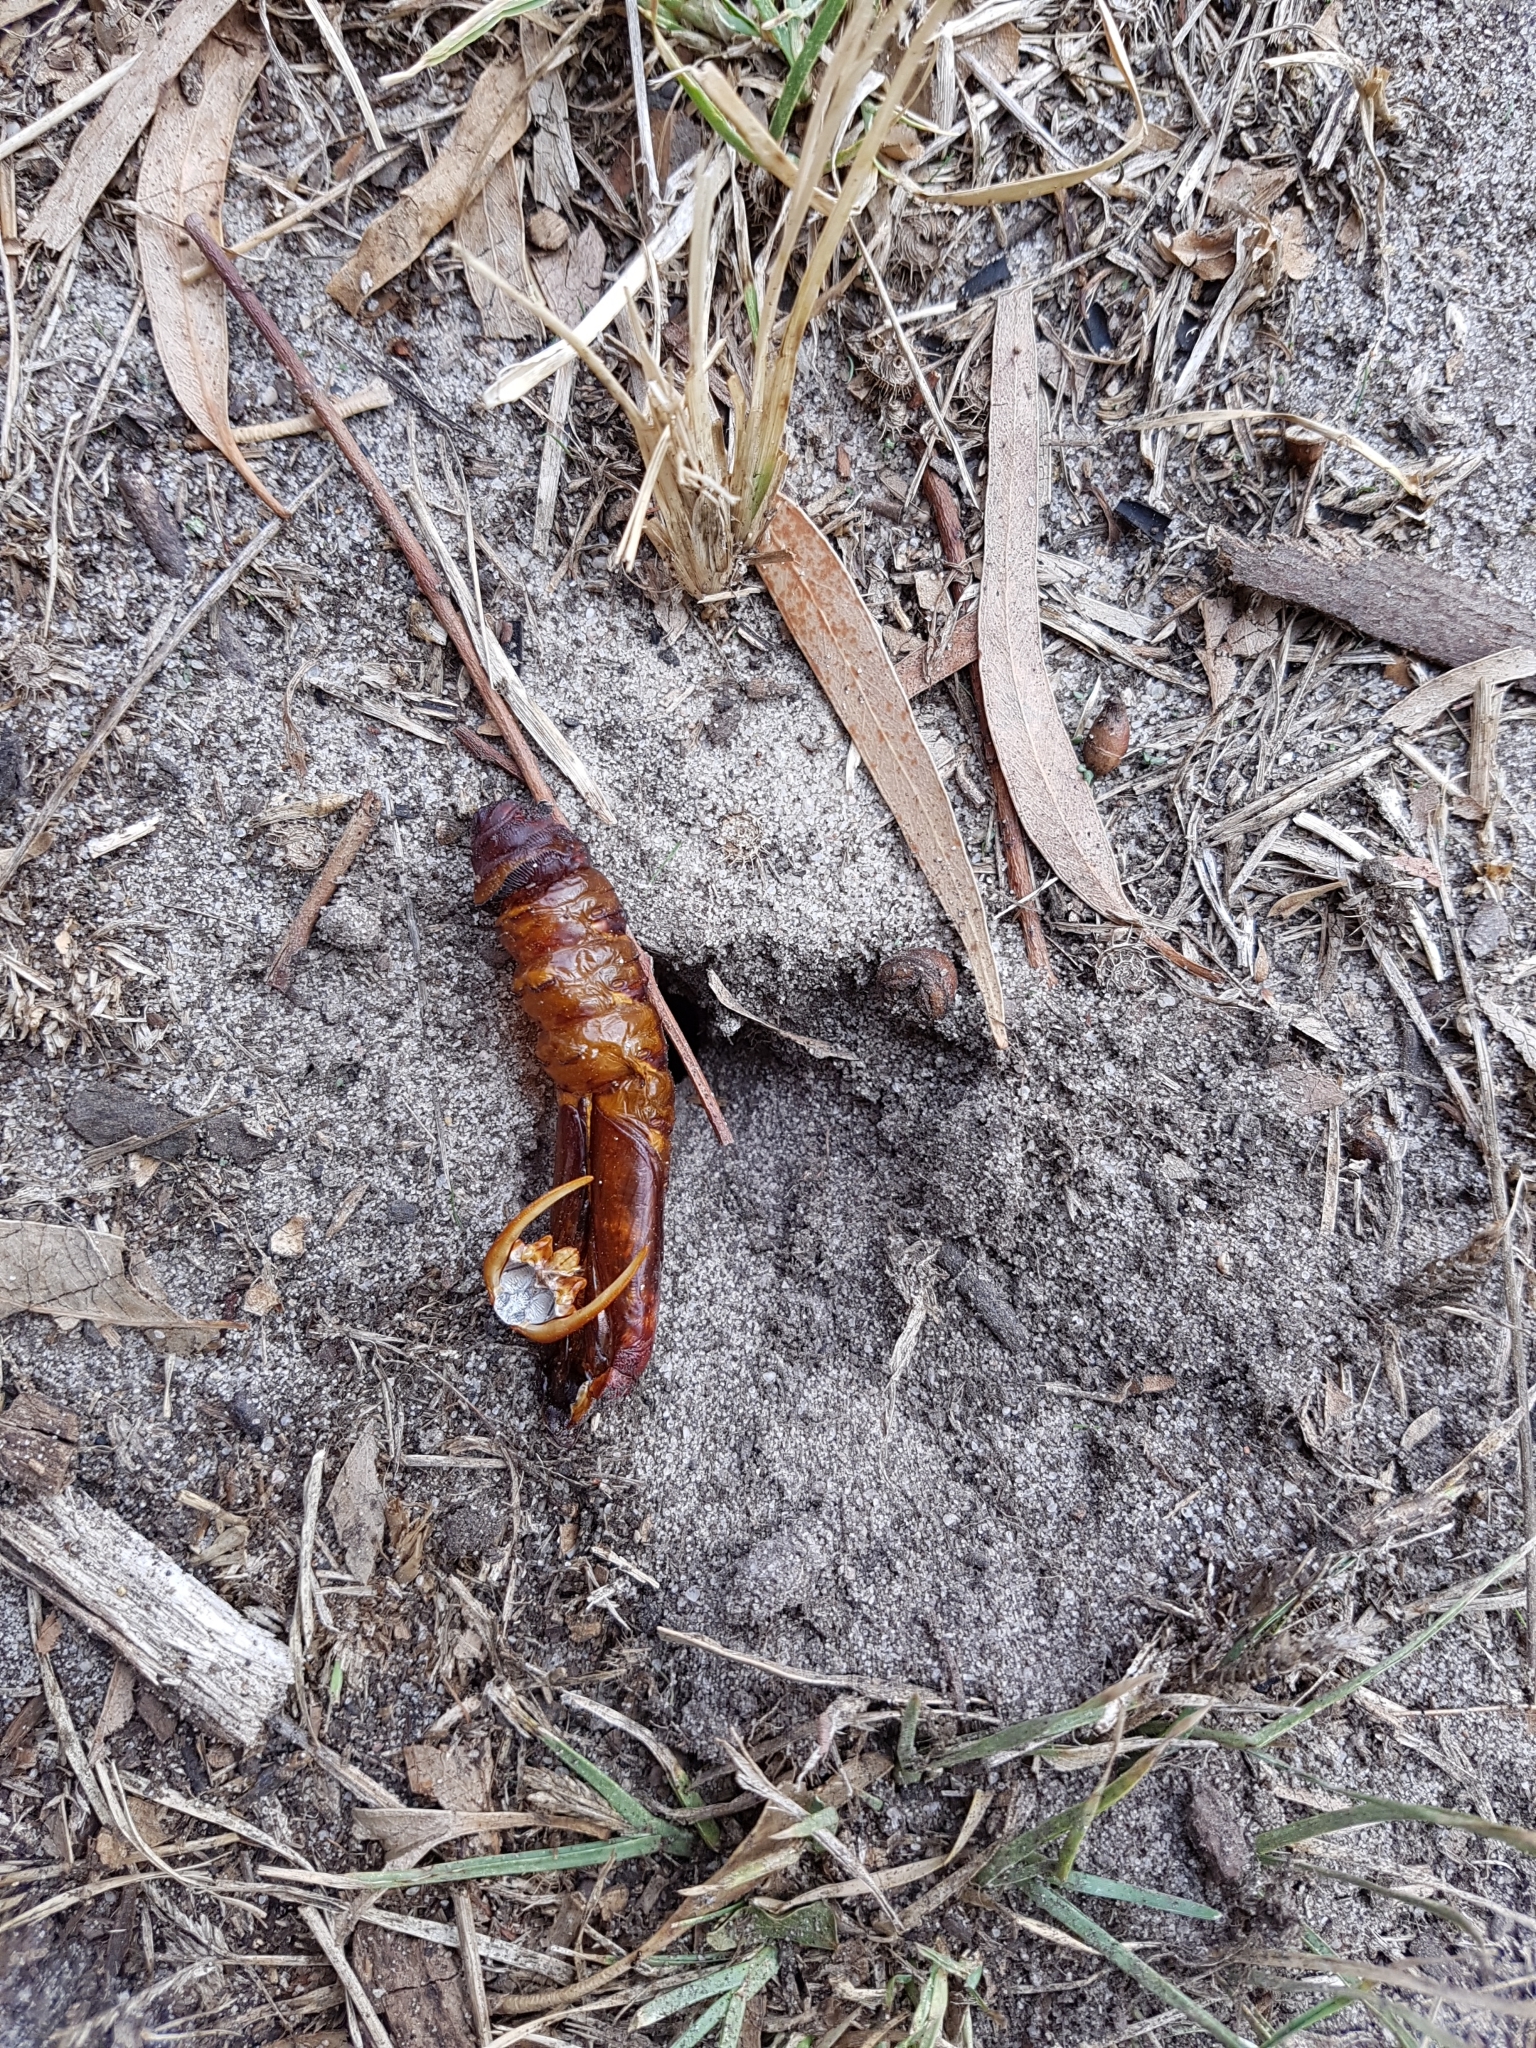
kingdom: Animalia
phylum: Arthropoda
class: Insecta
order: Lepidoptera
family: Hepialidae
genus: Abantiades
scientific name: Abantiades atripalpis
